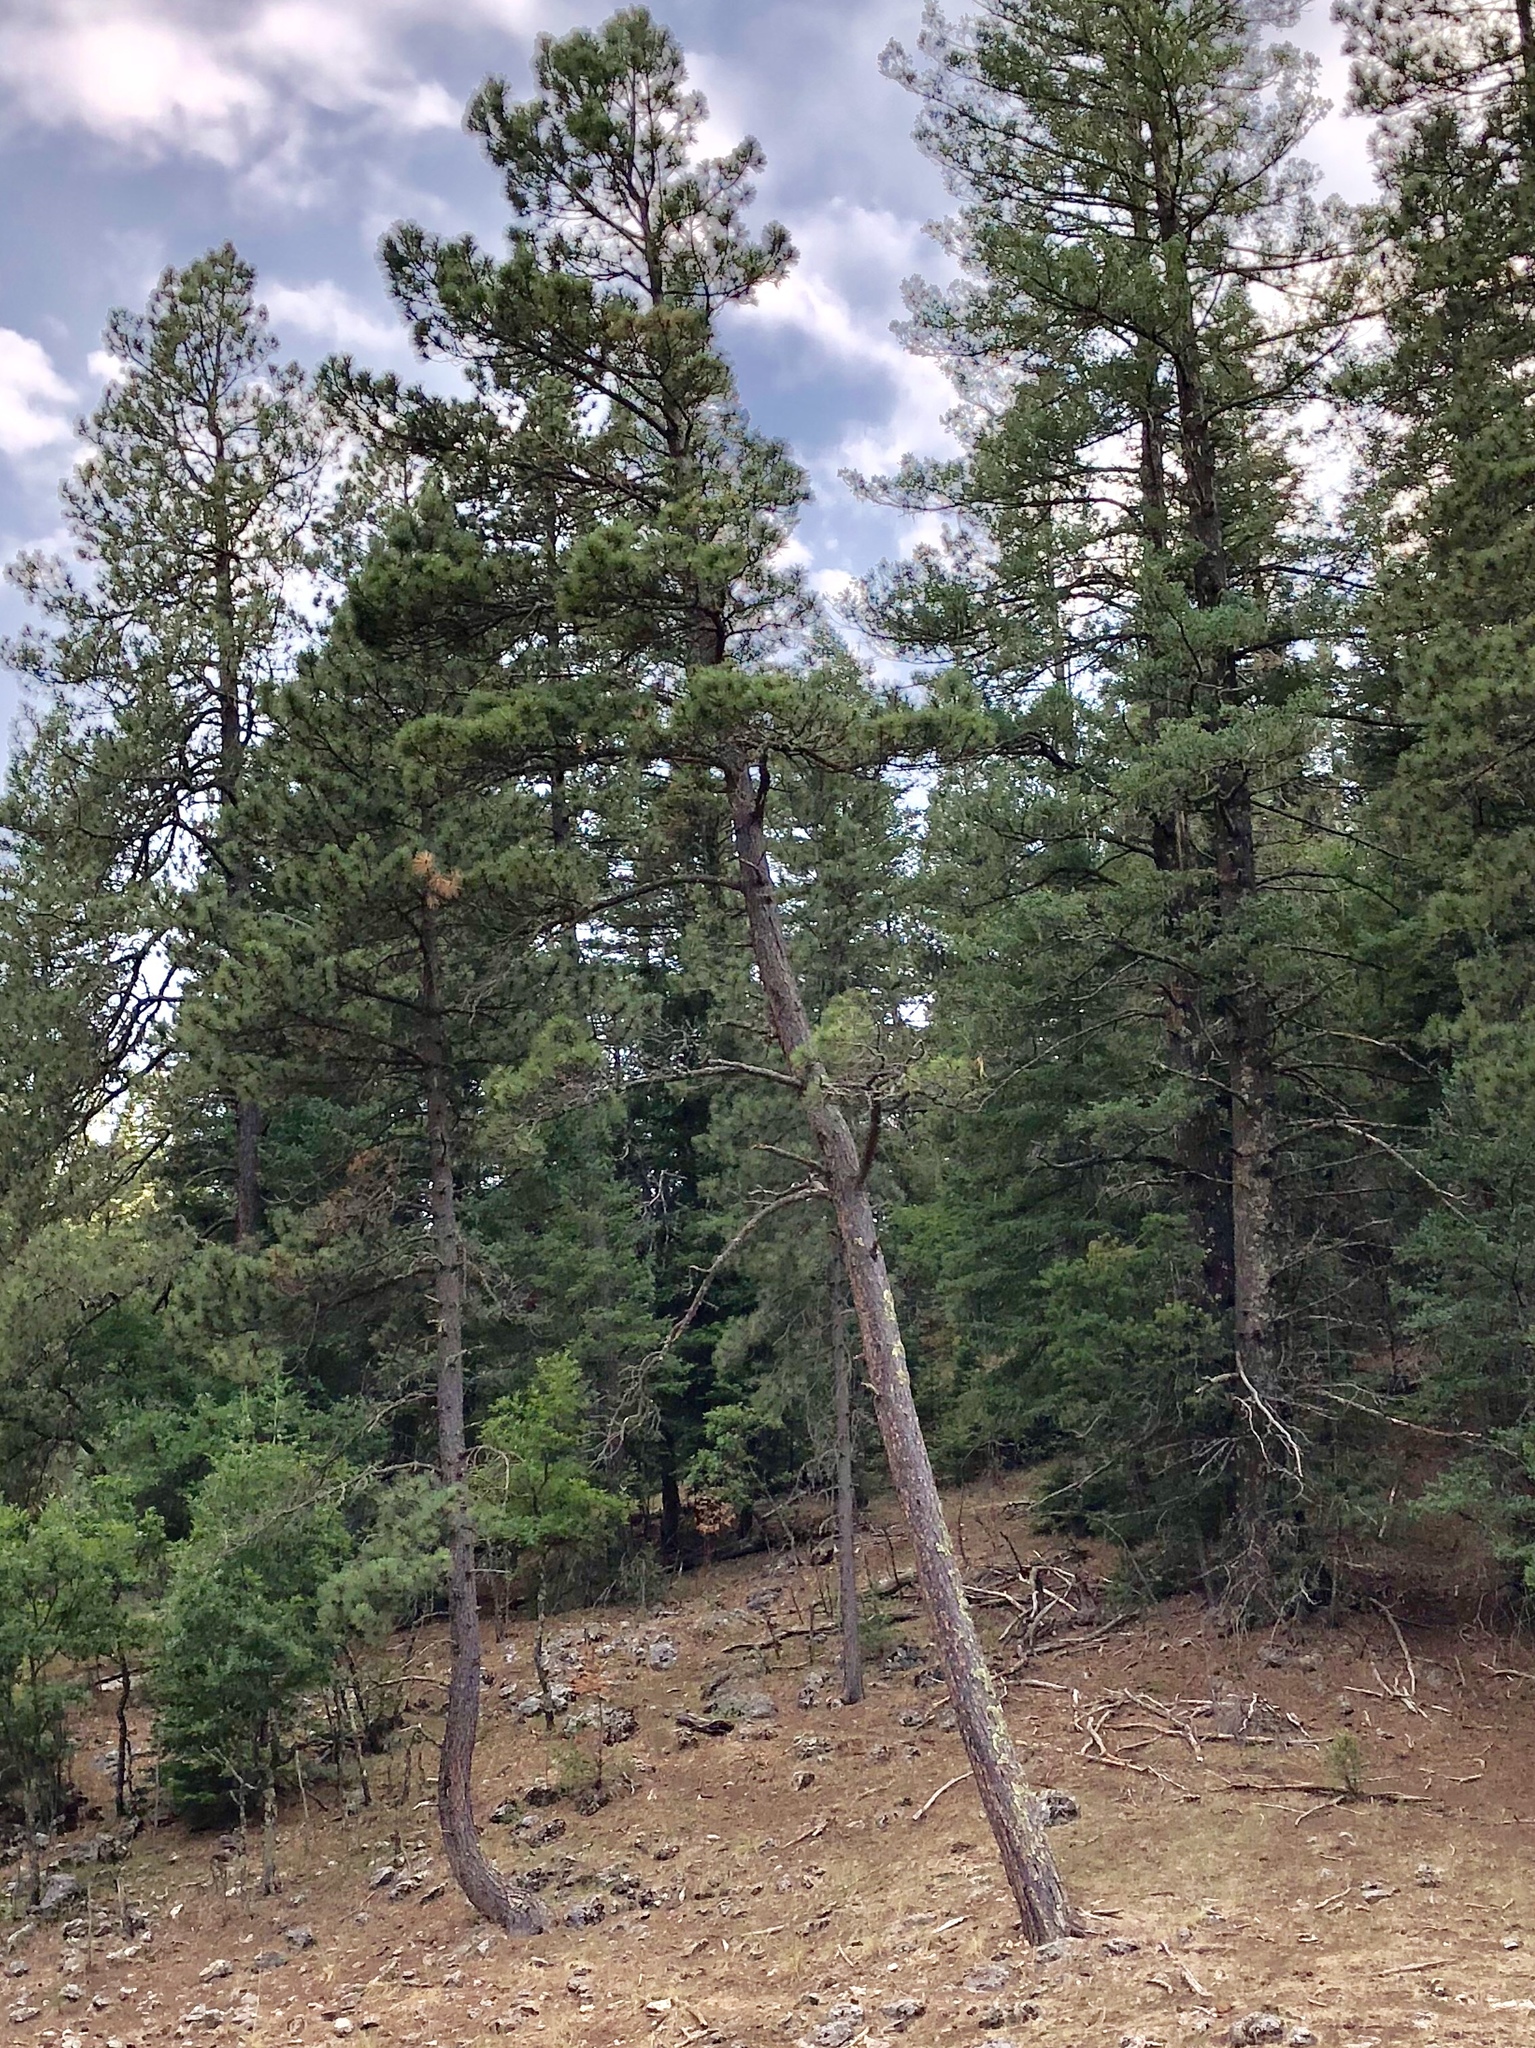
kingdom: Plantae
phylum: Tracheophyta
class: Pinopsida
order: Pinales
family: Pinaceae
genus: Pinus
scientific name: Pinus ponderosa
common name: Western yellow-pine
